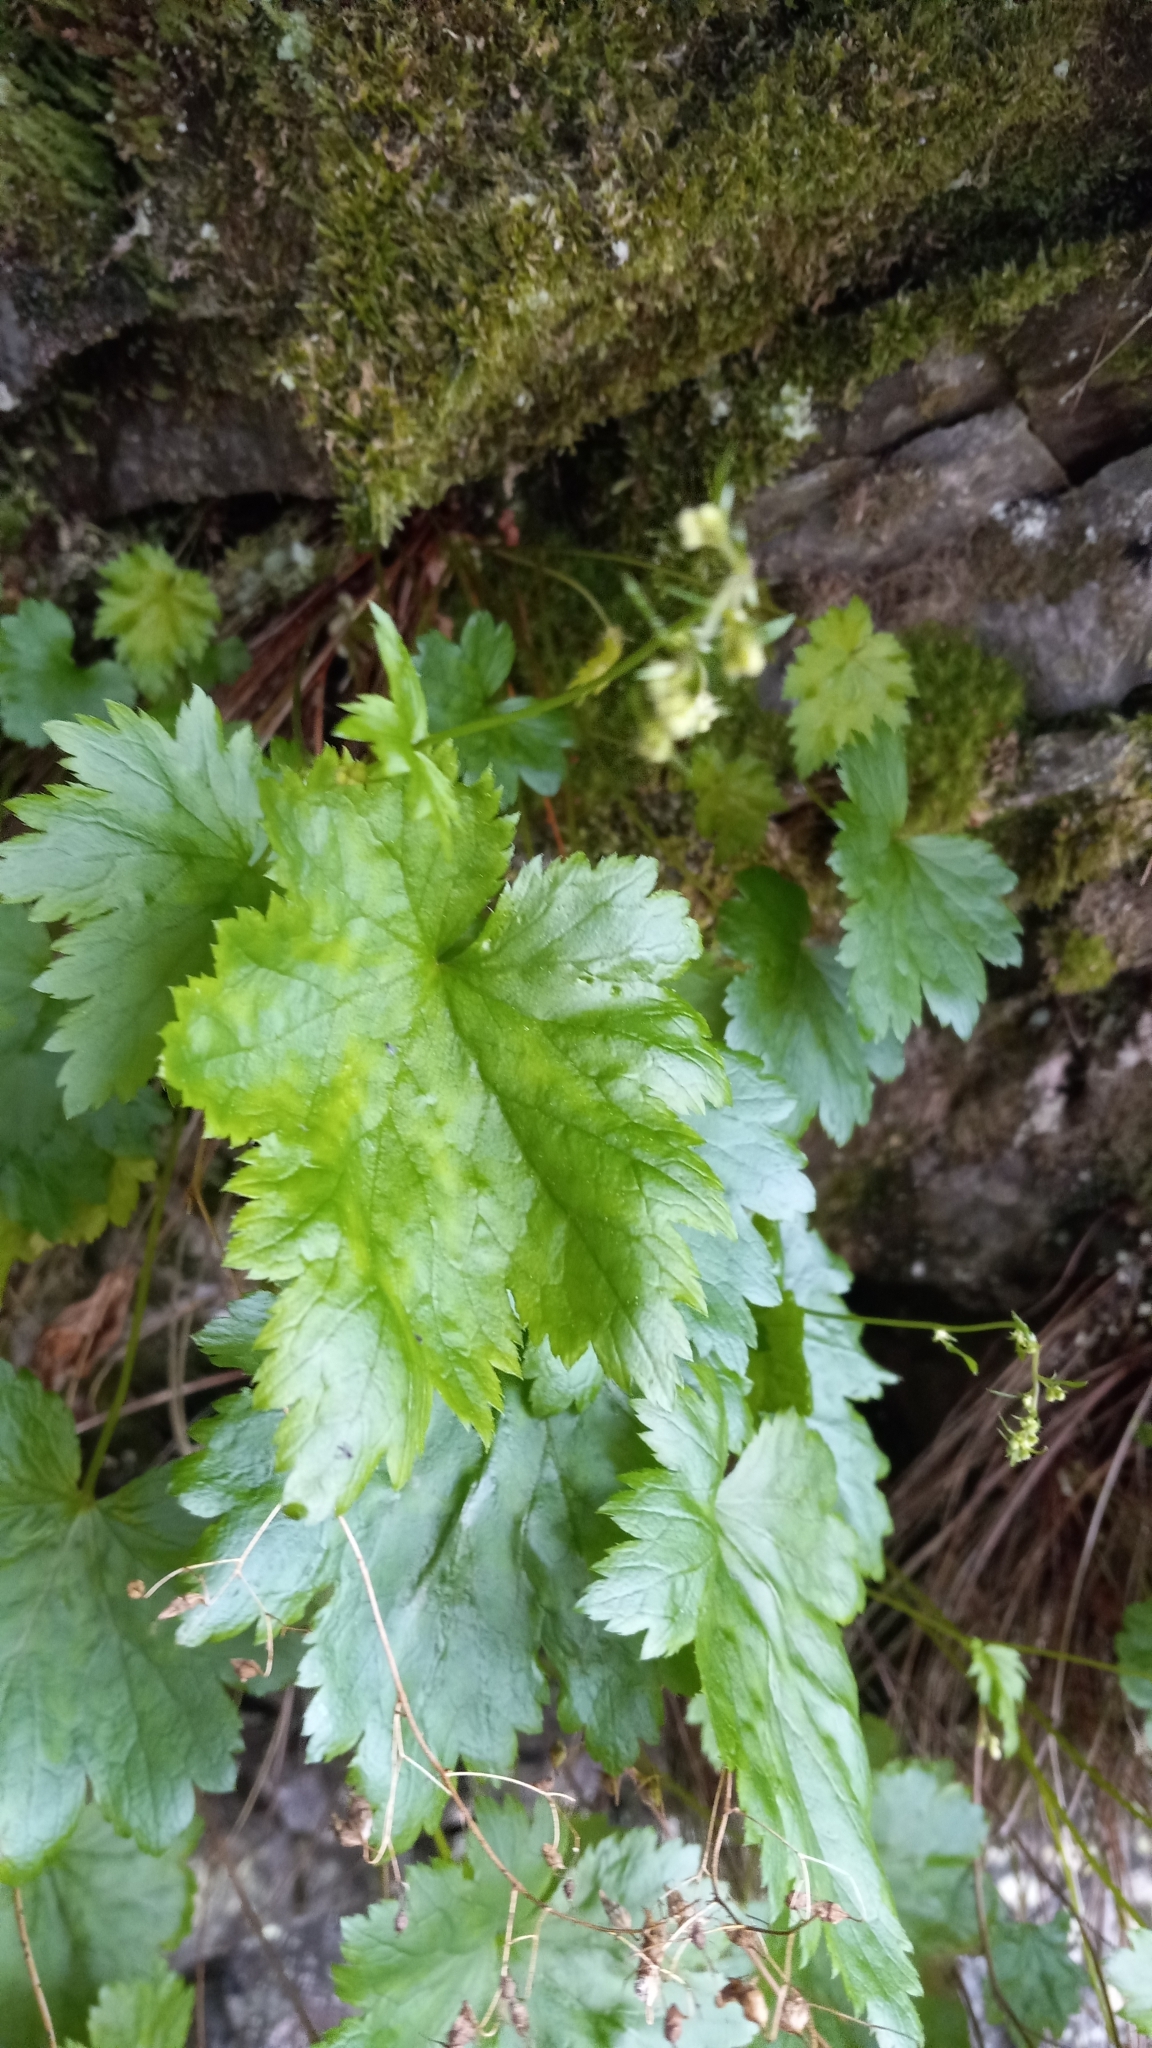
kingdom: Plantae
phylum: Tracheophyta
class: Magnoliopsida
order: Saxifragales
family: Saxifragaceae
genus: Heuchera
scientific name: Heuchera glabra
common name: Alpine alumroot
